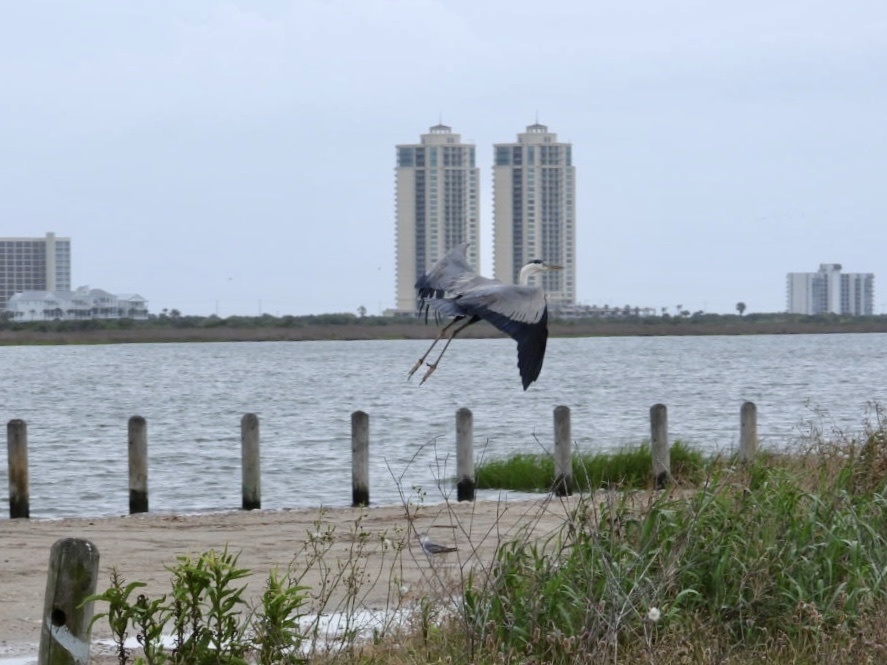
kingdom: Animalia
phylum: Chordata
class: Aves
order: Pelecaniformes
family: Ardeidae
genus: Ardea
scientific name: Ardea herodias
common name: Great blue heron
